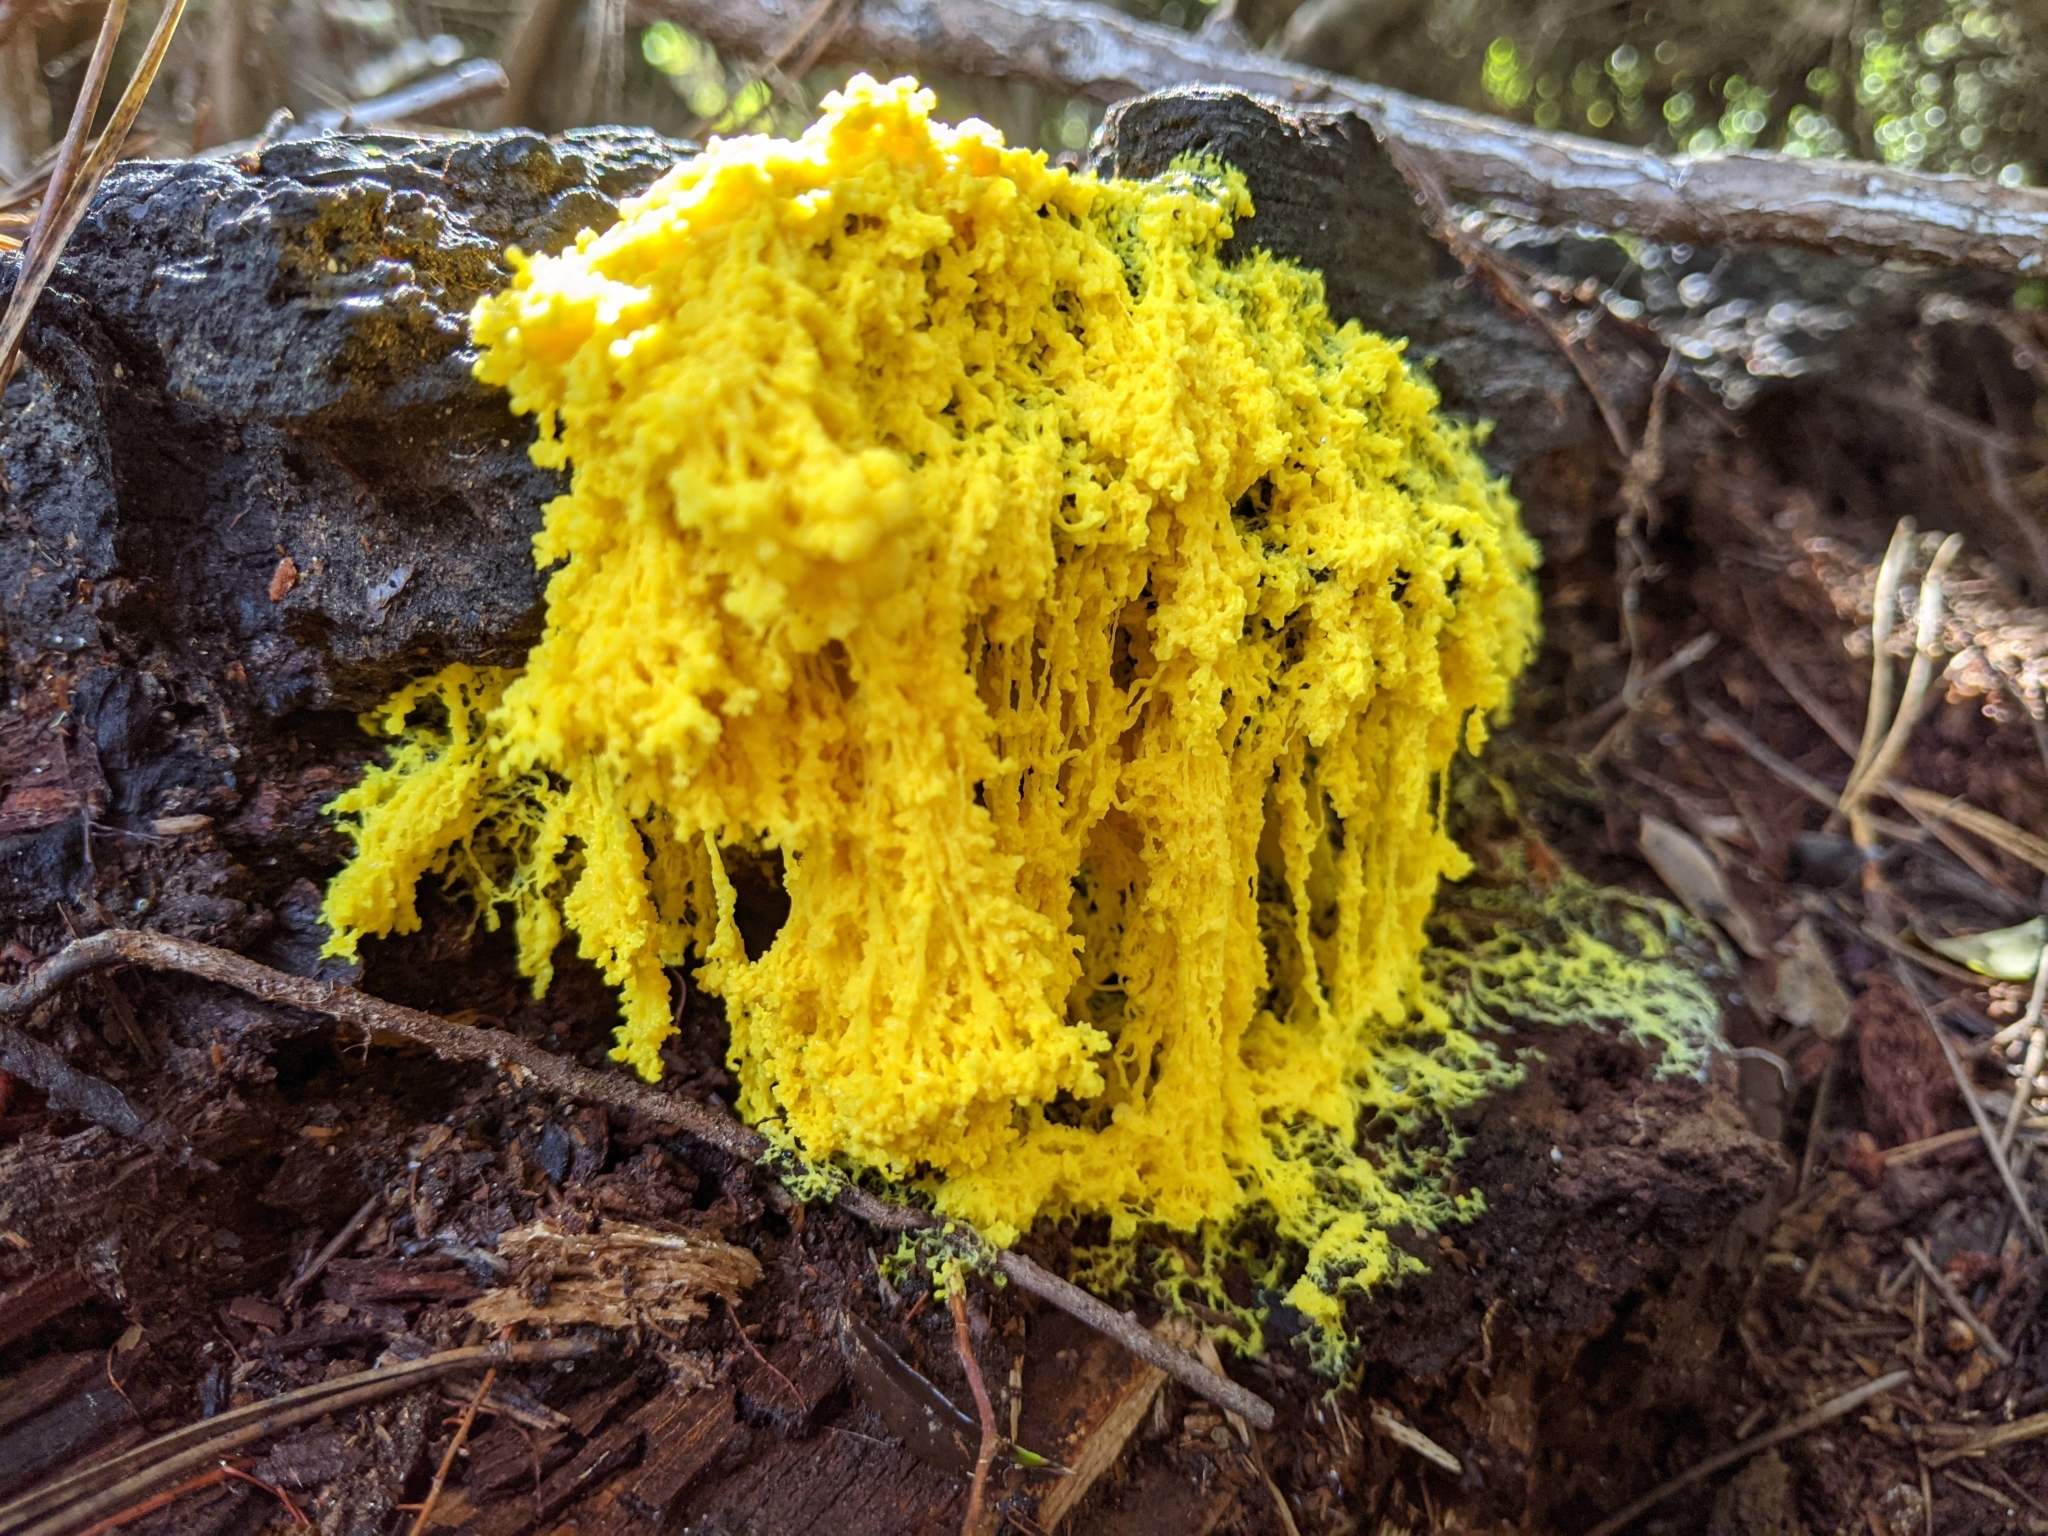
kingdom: Protozoa
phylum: Mycetozoa
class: Myxomycetes
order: Physarales
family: Physaraceae
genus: Fuligo
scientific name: Fuligo septica
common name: Dog vomit slime mold
